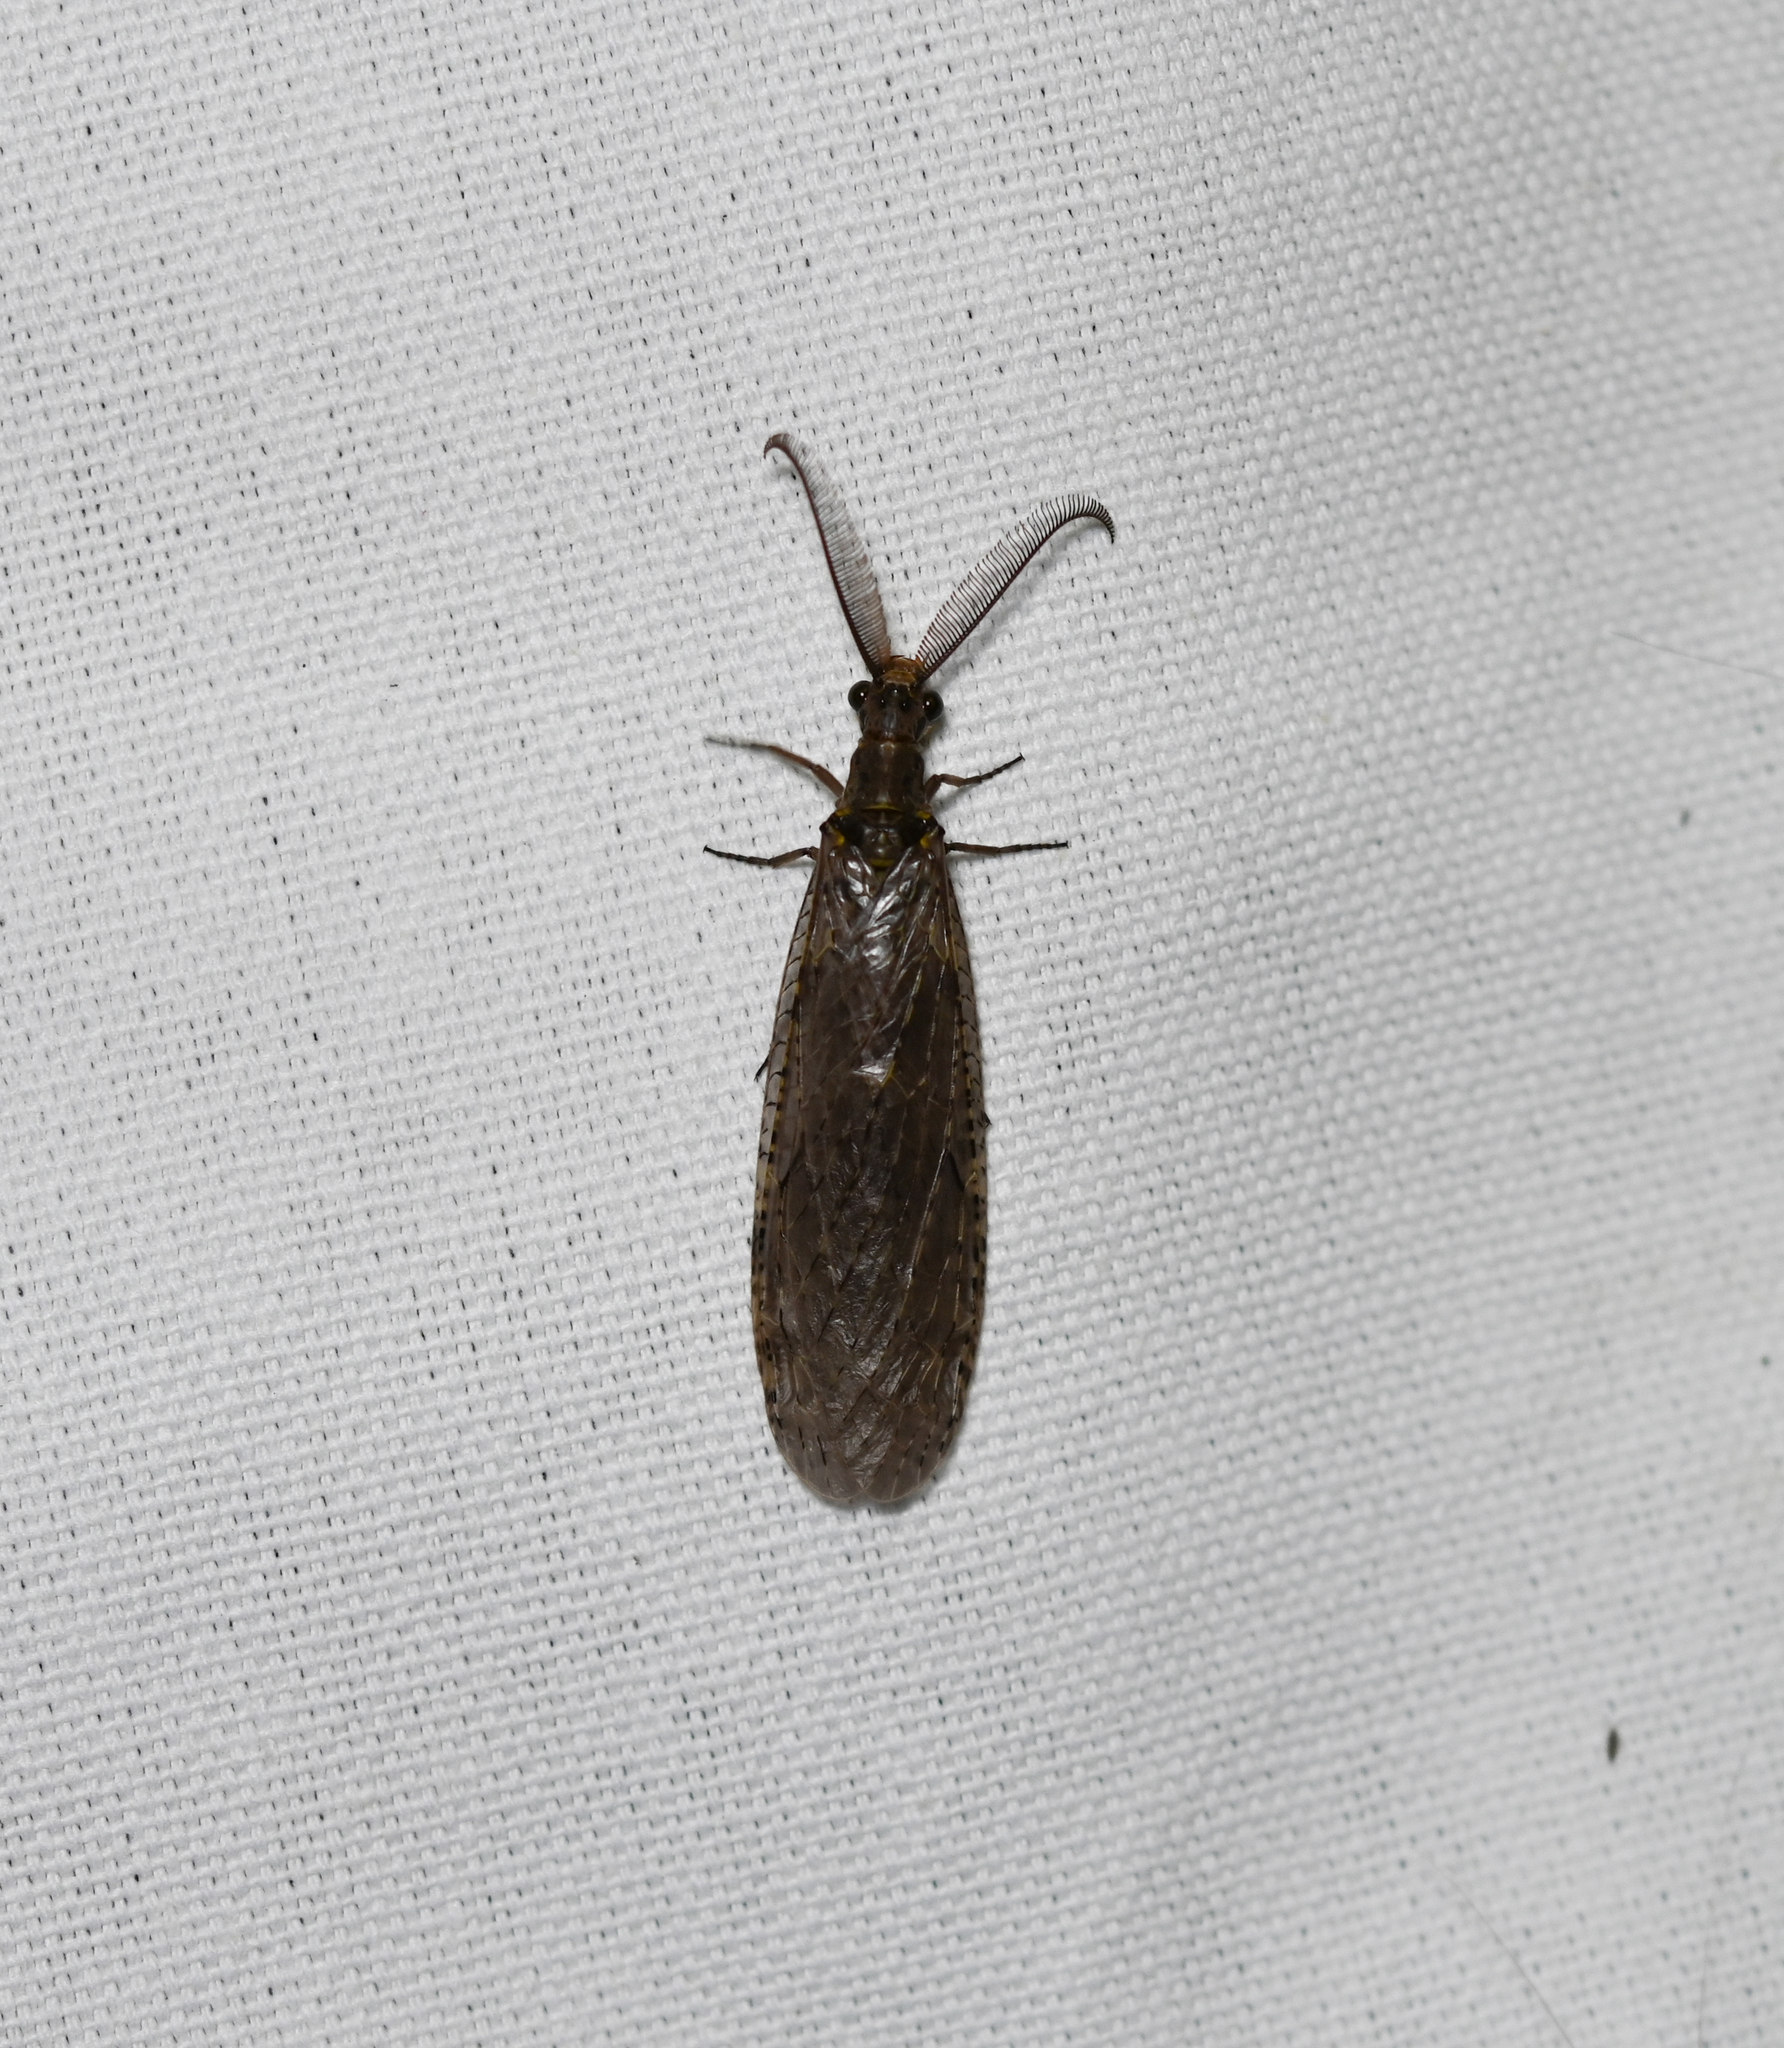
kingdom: Animalia
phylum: Arthropoda
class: Insecta
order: Megaloptera
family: Corydalidae
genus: Chauliodes
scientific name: Chauliodes rastricornis
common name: Spring fishfly
